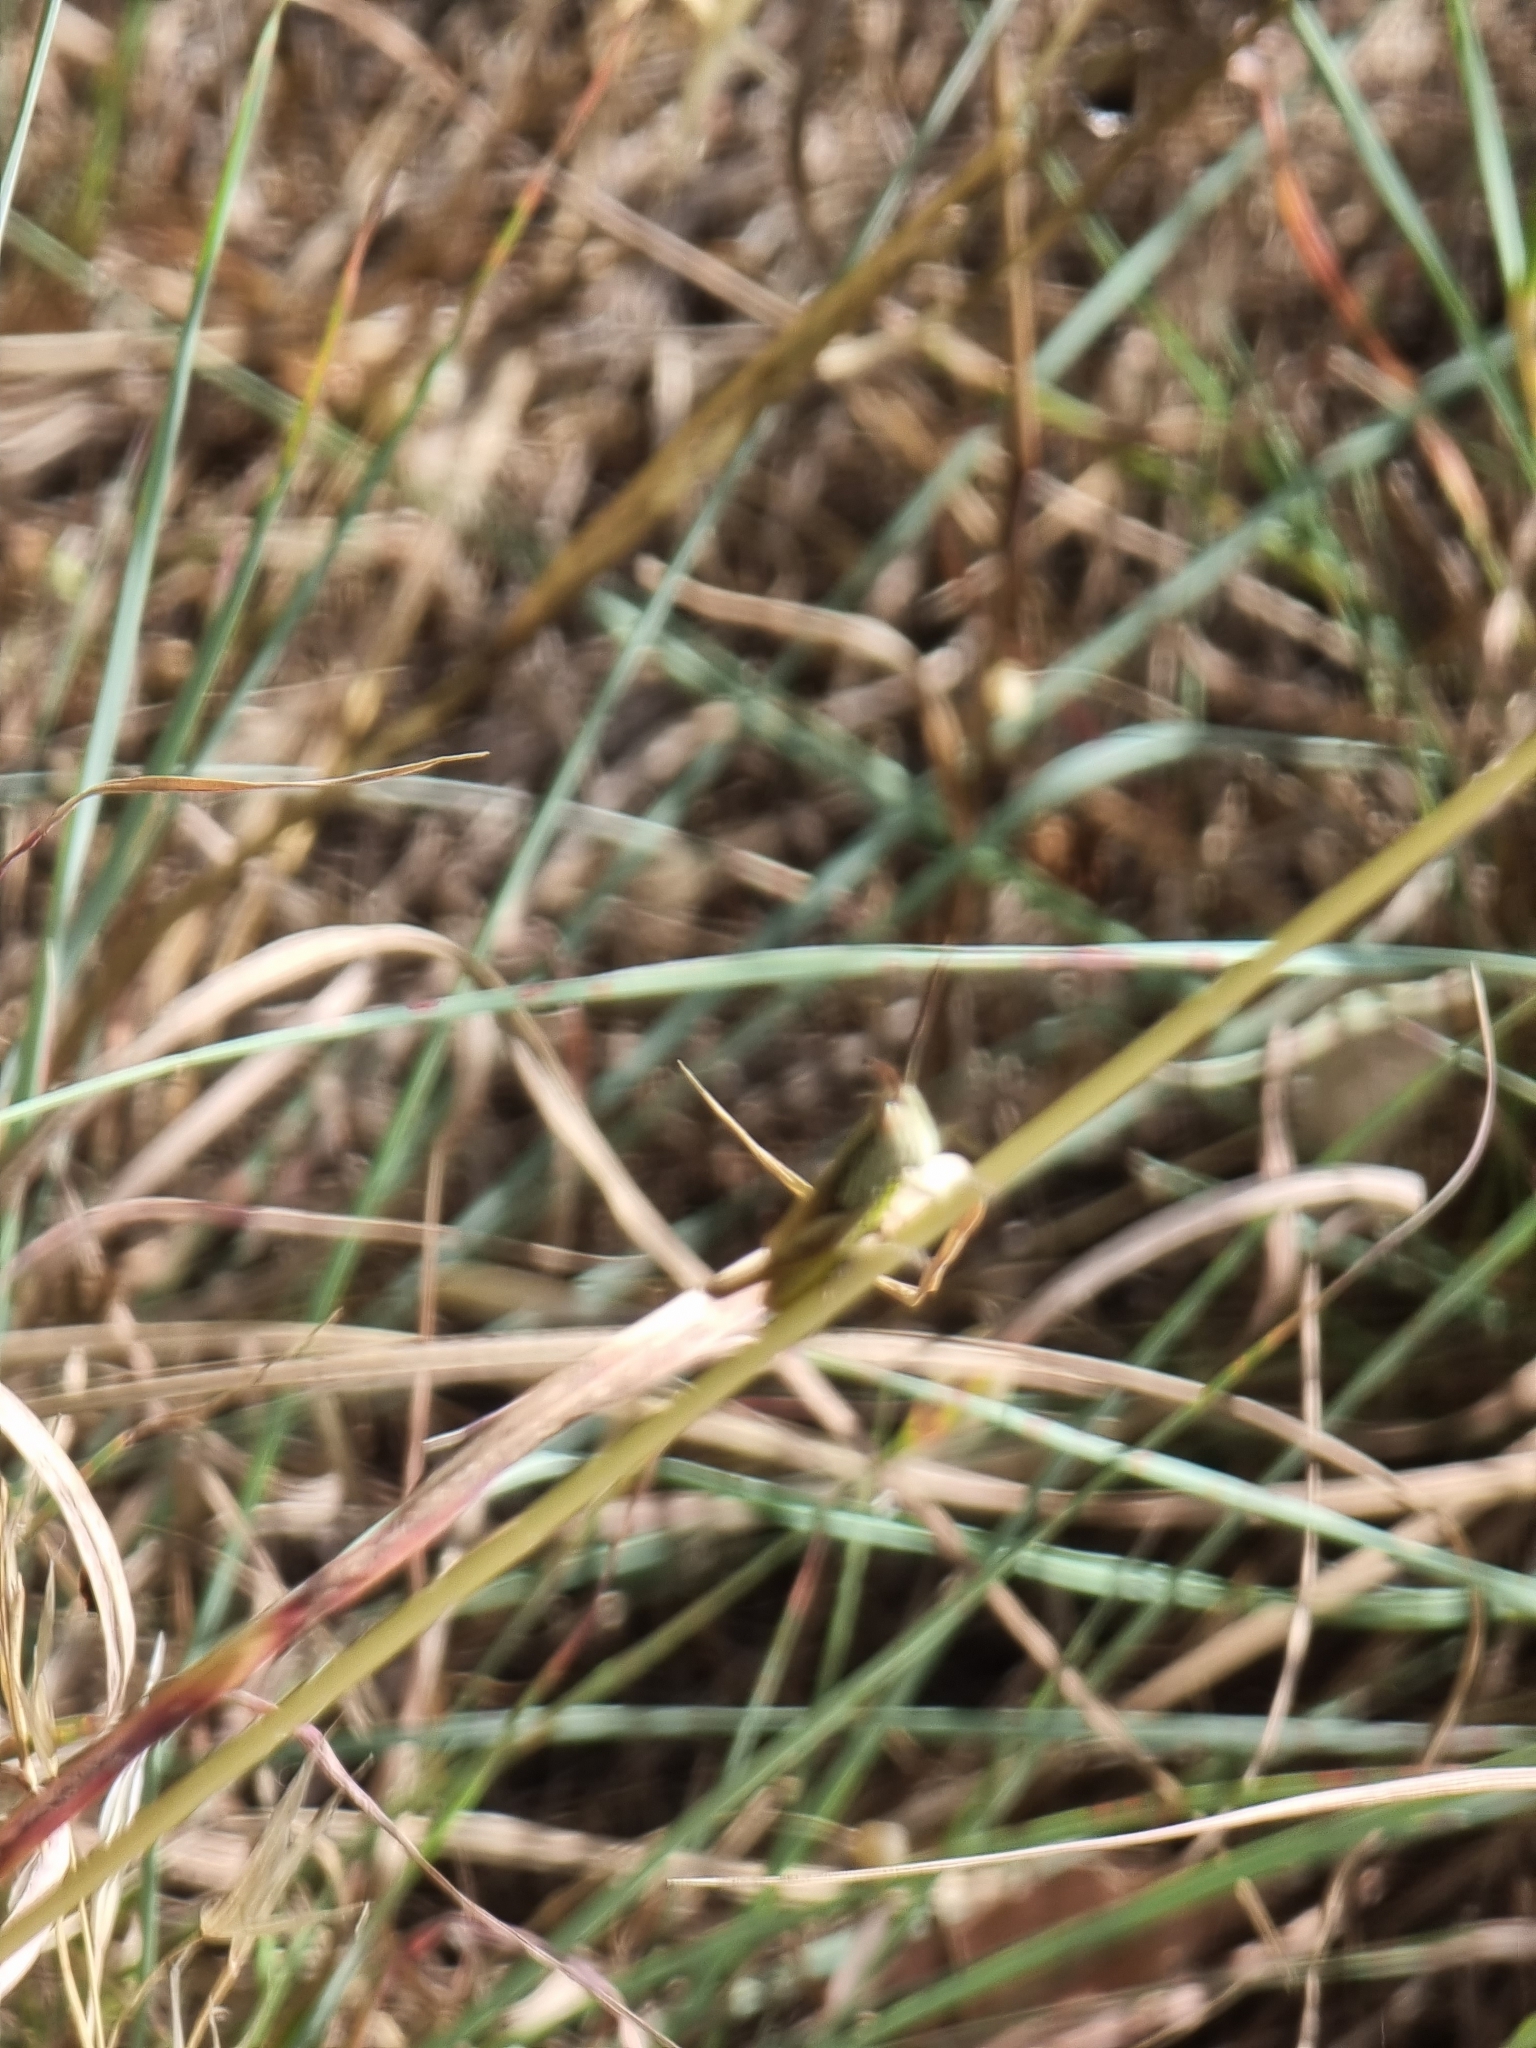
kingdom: Animalia
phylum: Arthropoda
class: Insecta
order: Orthoptera
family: Acrididae
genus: Euchorthippus
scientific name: Euchorthippus madeirae
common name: Madeiran straw grasshopper
